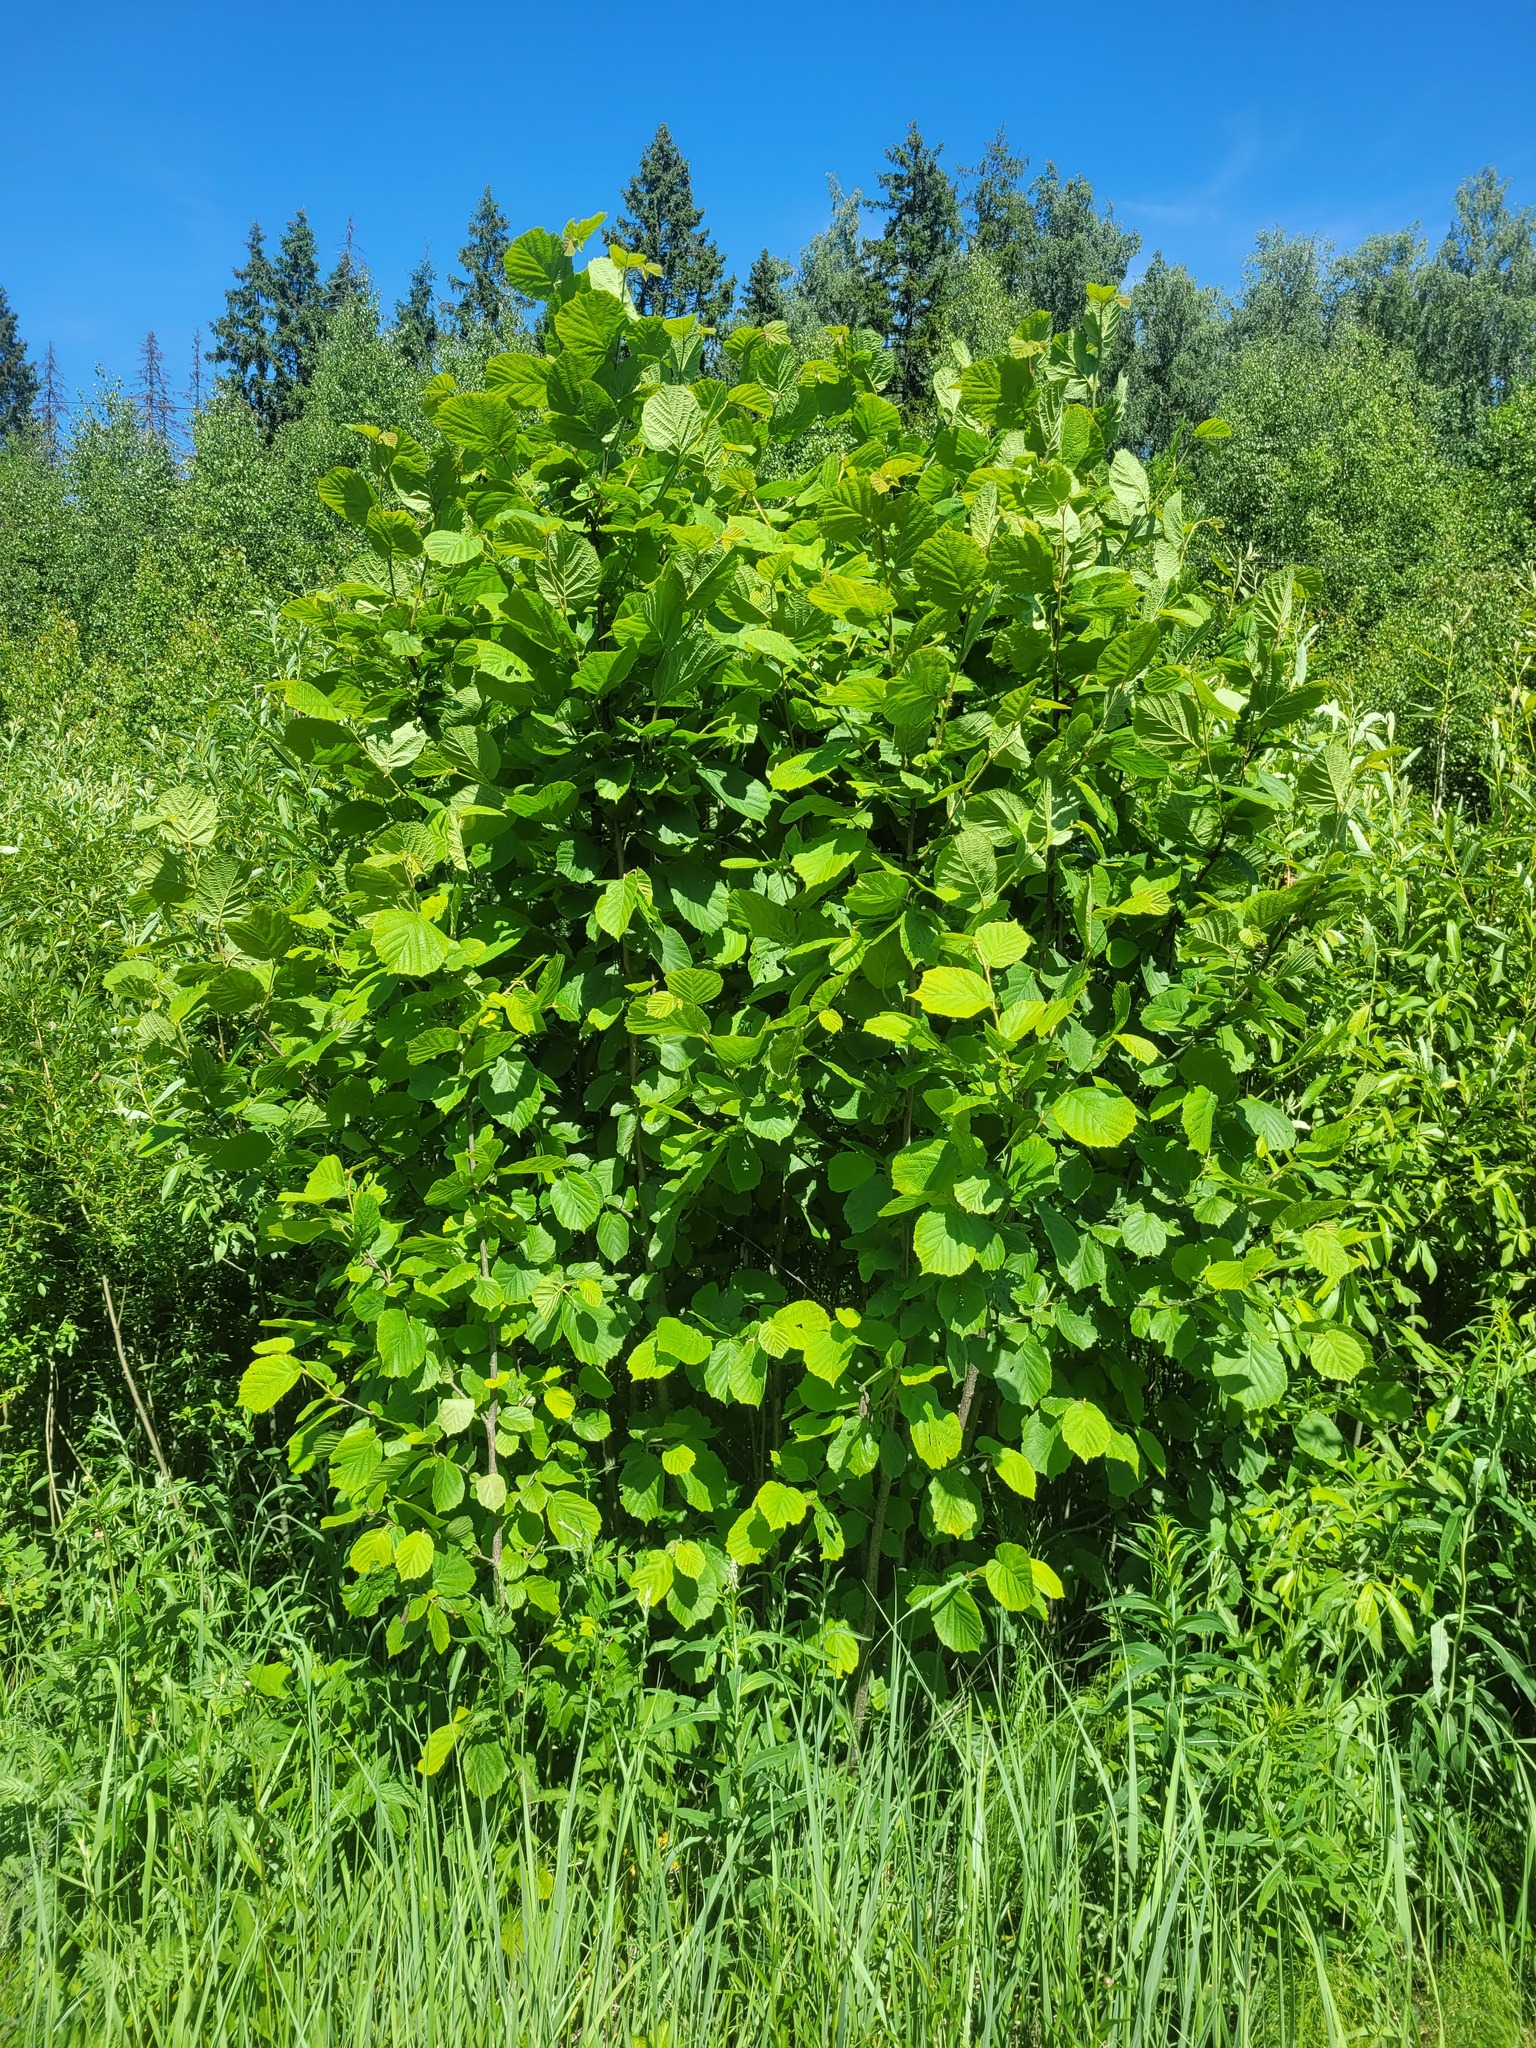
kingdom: Plantae
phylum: Tracheophyta
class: Magnoliopsida
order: Fagales
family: Betulaceae
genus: Corylus
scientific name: Corylus avellana
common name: European hazel
